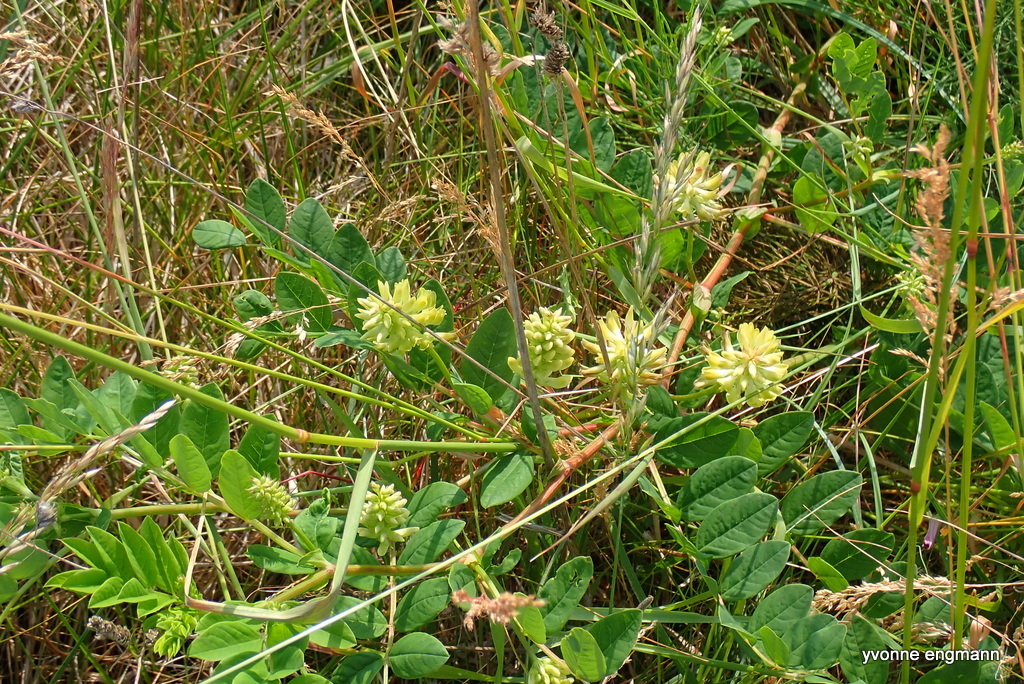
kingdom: Plantae
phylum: Tracheophyta
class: Magnoliopsida
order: Fabales
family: Fabaceae
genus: Astragalus
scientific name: Astragalus glycyphyllos
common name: Wild liquorice
